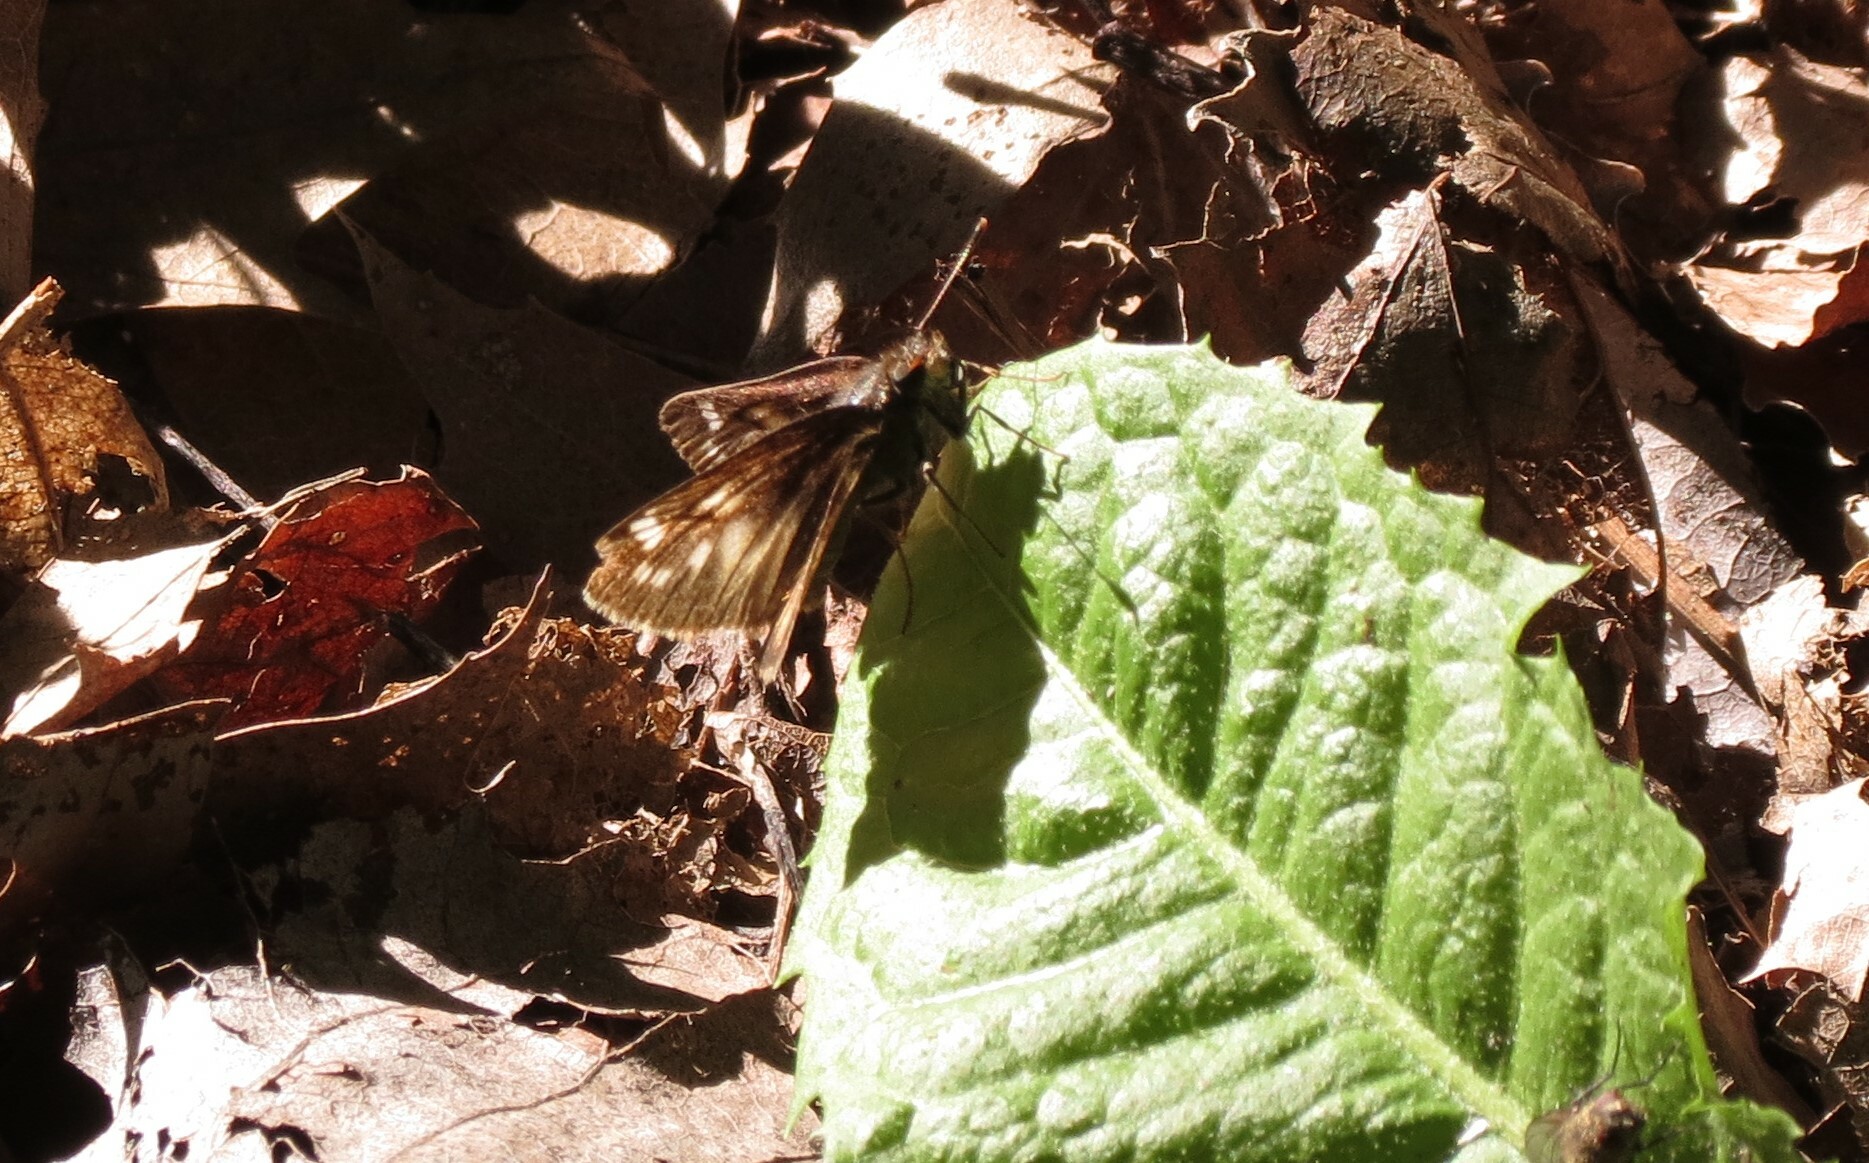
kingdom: Animalia
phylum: Arthropoda
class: Insecta
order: Lepidoptera
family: Hesperiidae
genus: Lon
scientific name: Lon hobomok
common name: Hobomok skipper
